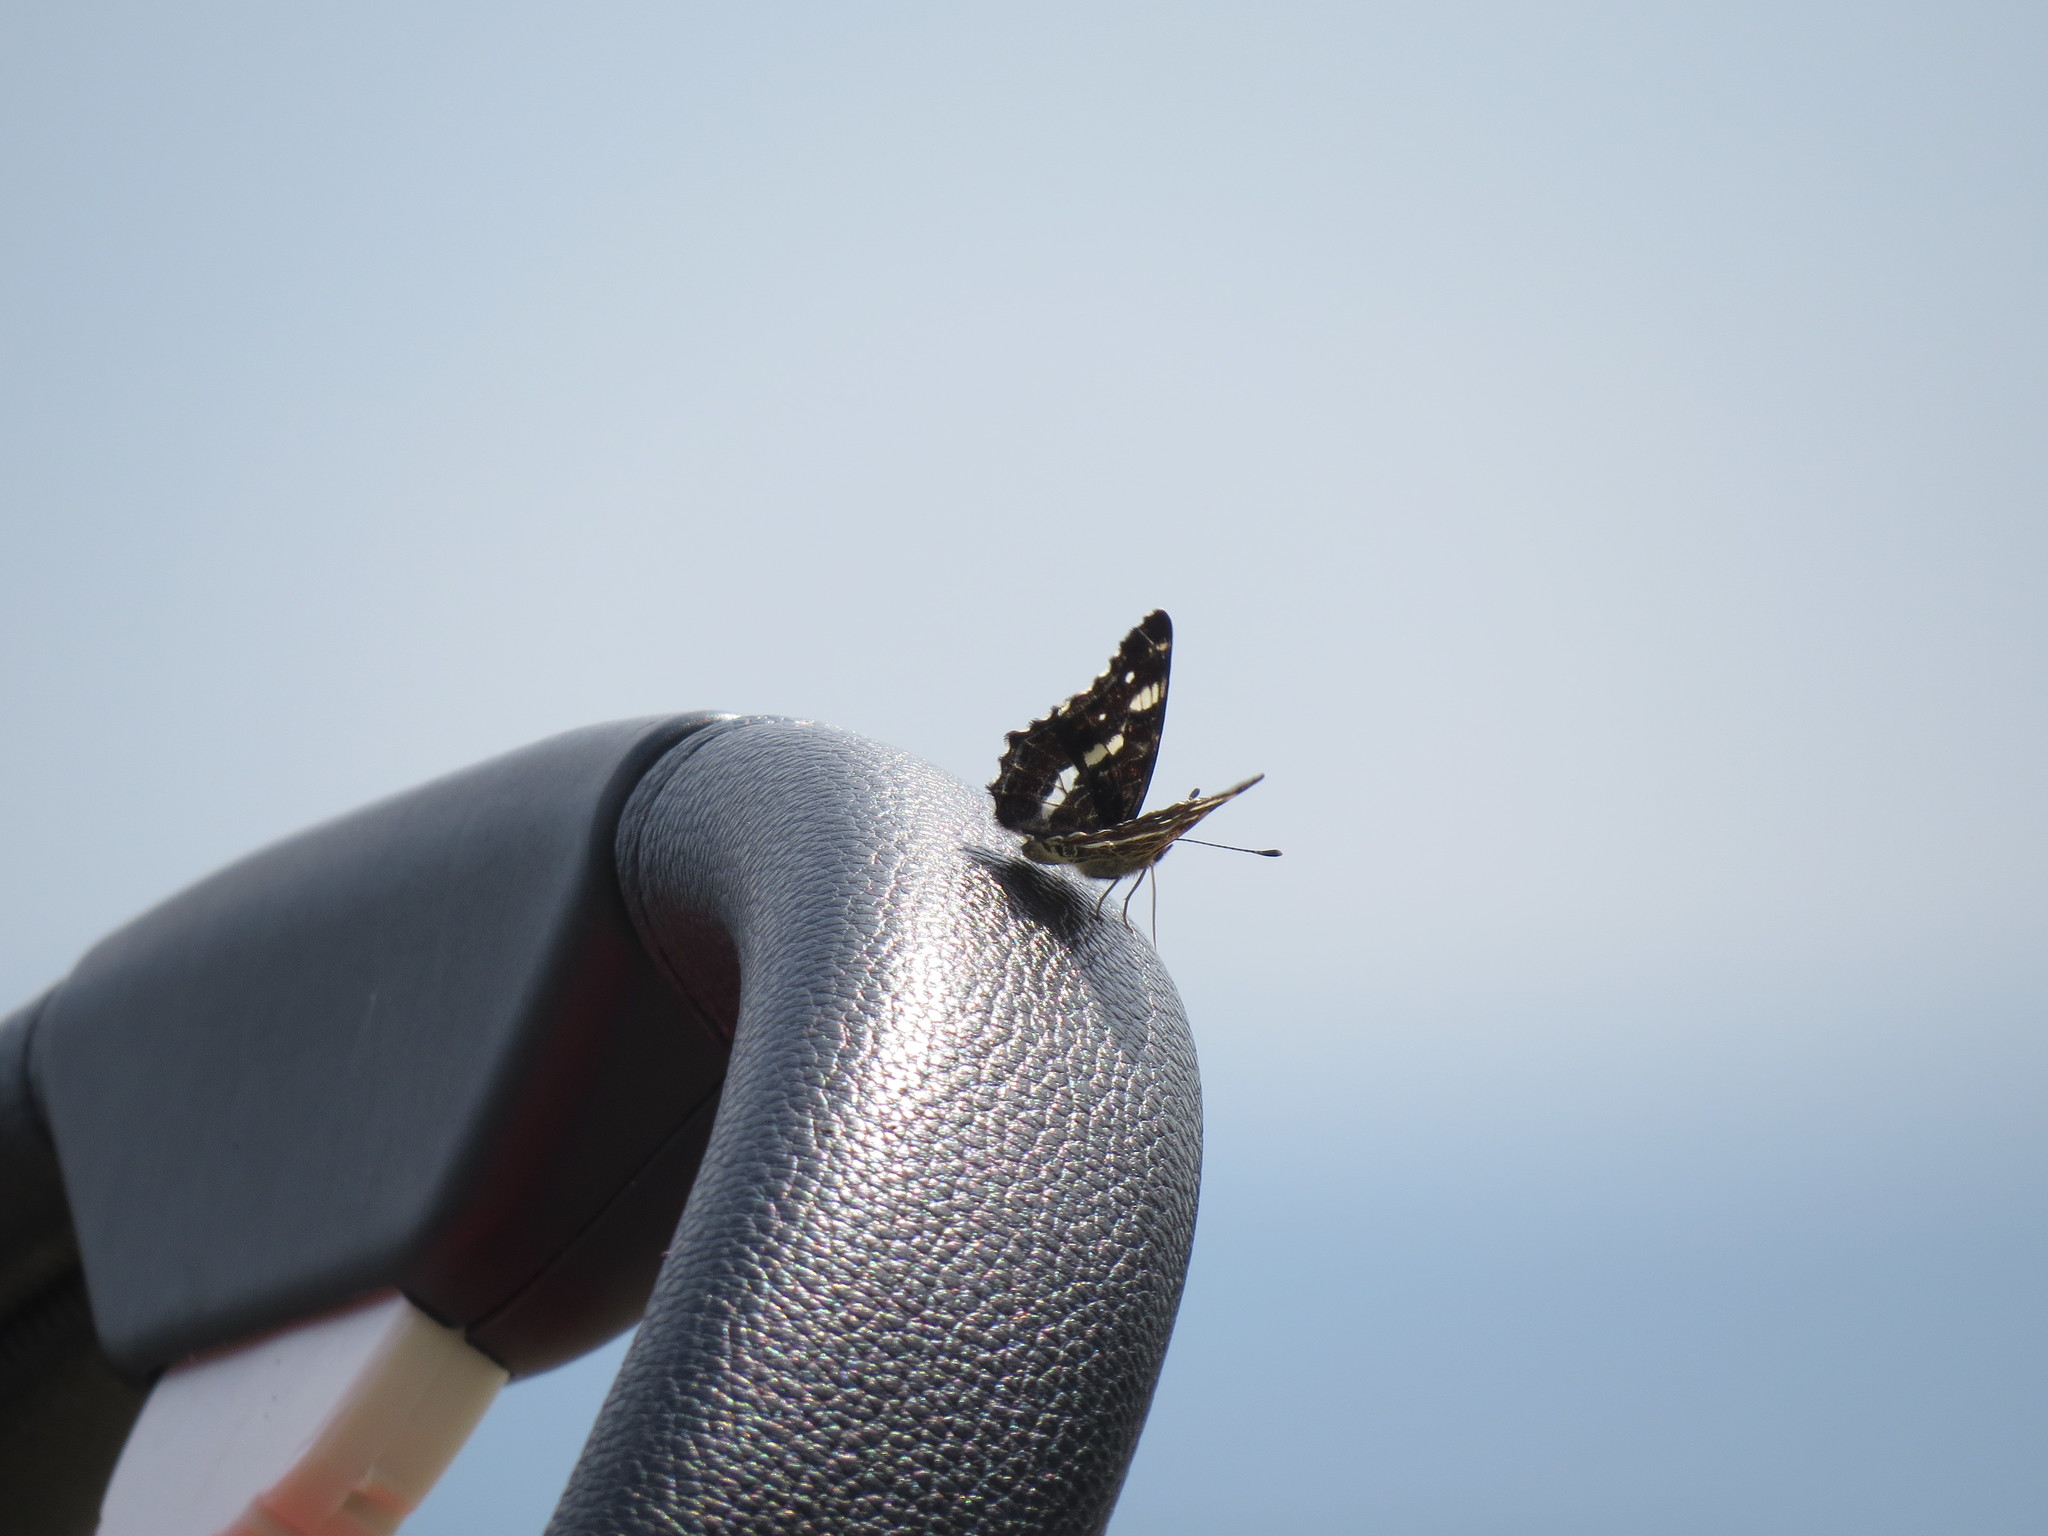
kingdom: Animalia
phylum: Arthropoda
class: Insecta
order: Lepidoptera
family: Nymphalidae
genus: Araschnia
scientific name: Araschnia levana
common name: Map butterfly
